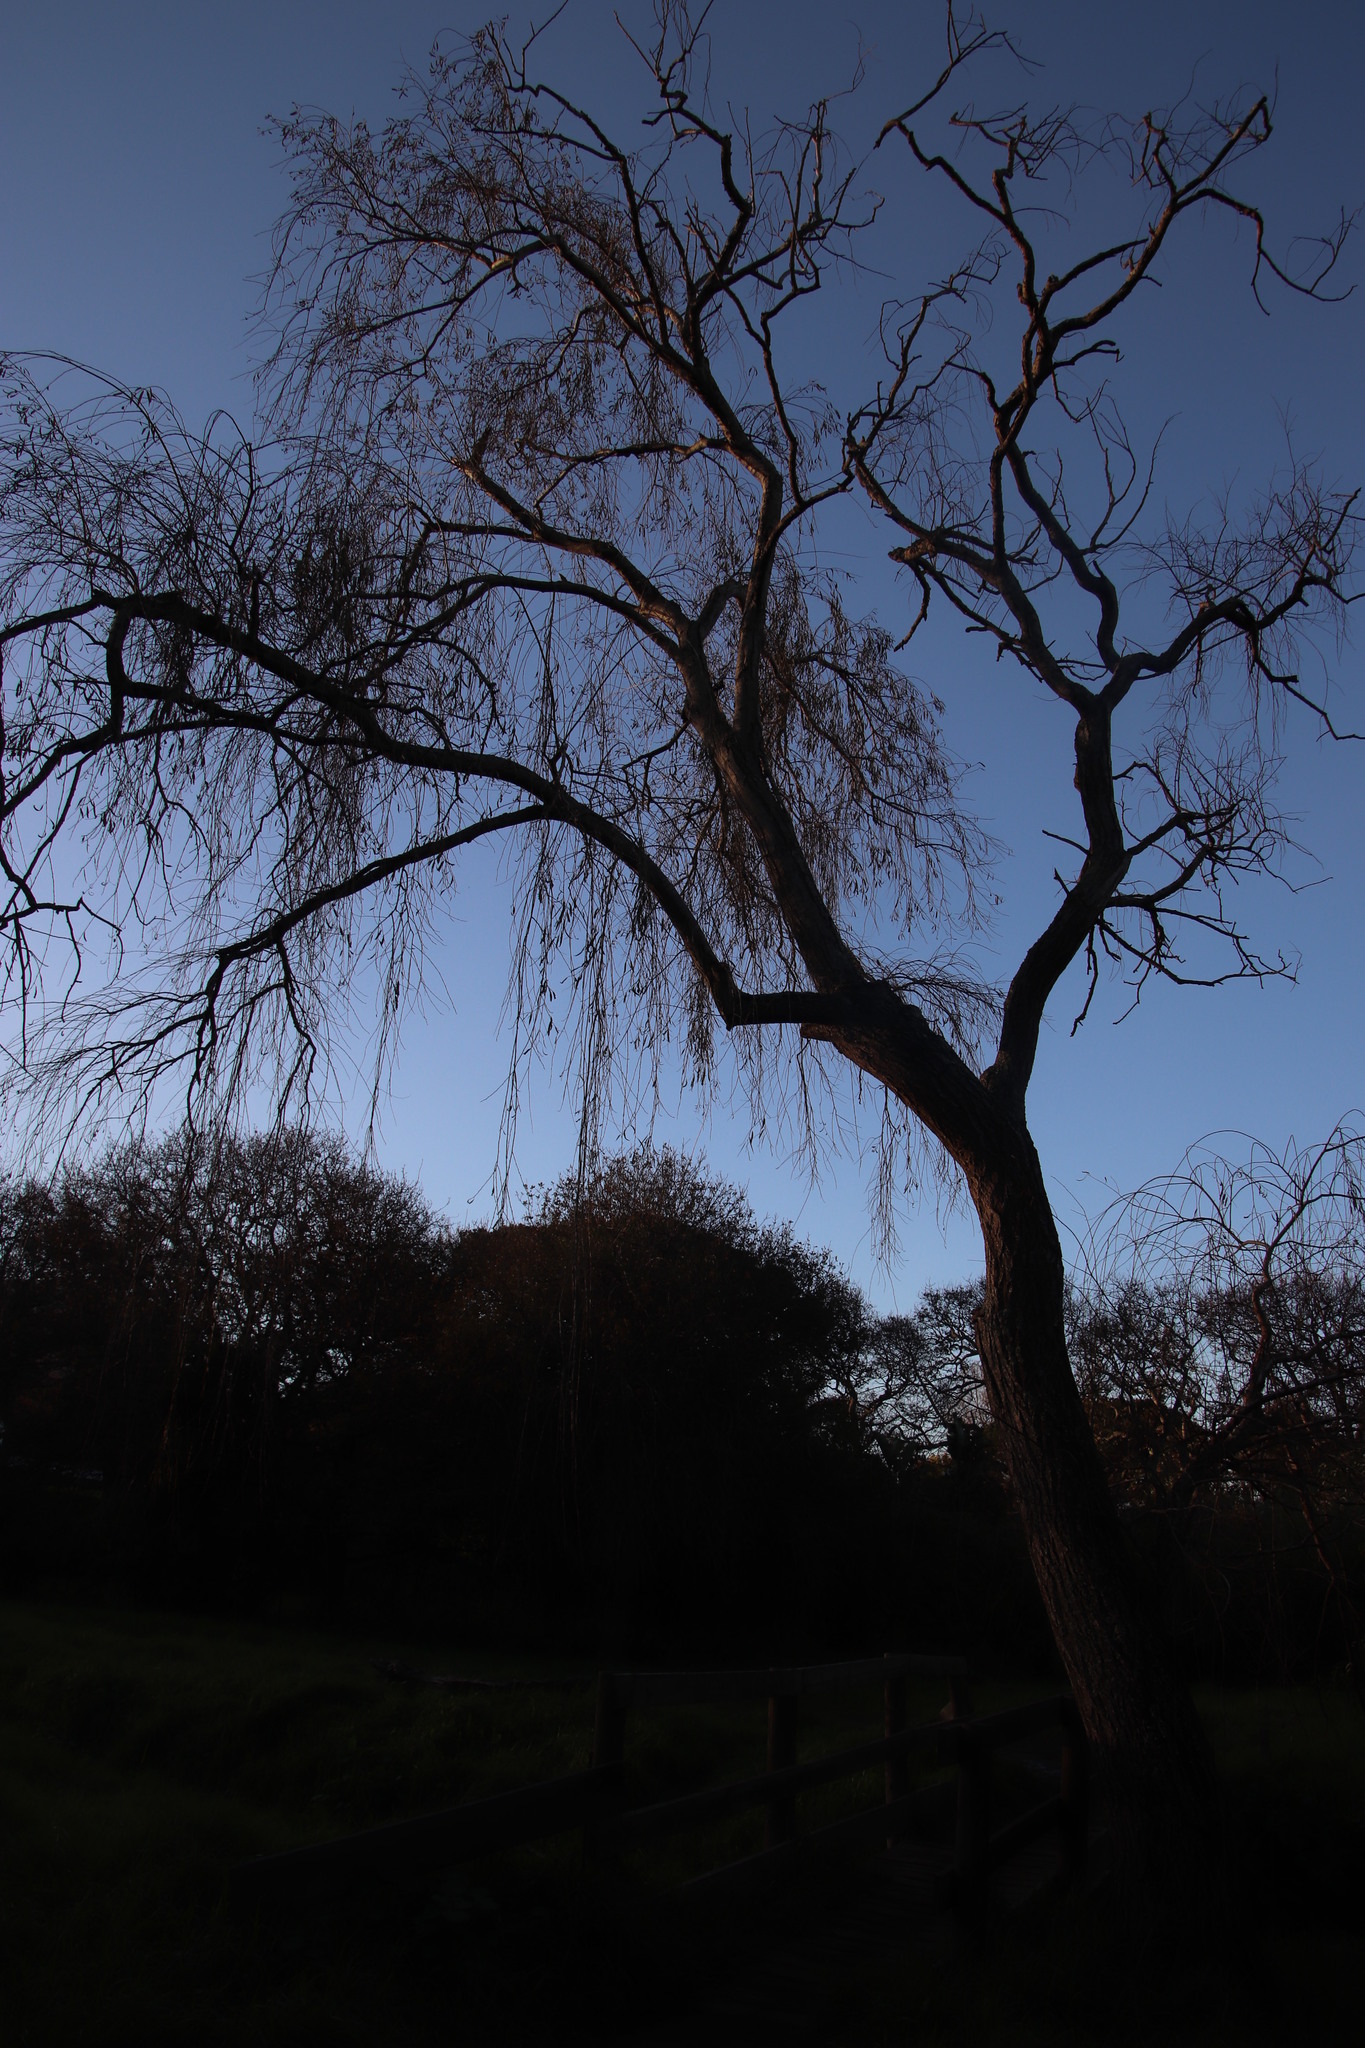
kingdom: Plantae
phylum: Tracheophyta
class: Magnoliopsida
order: Malpighiales
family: Salicaceae
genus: Salix
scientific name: Salix babylonica
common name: Weeping willow
